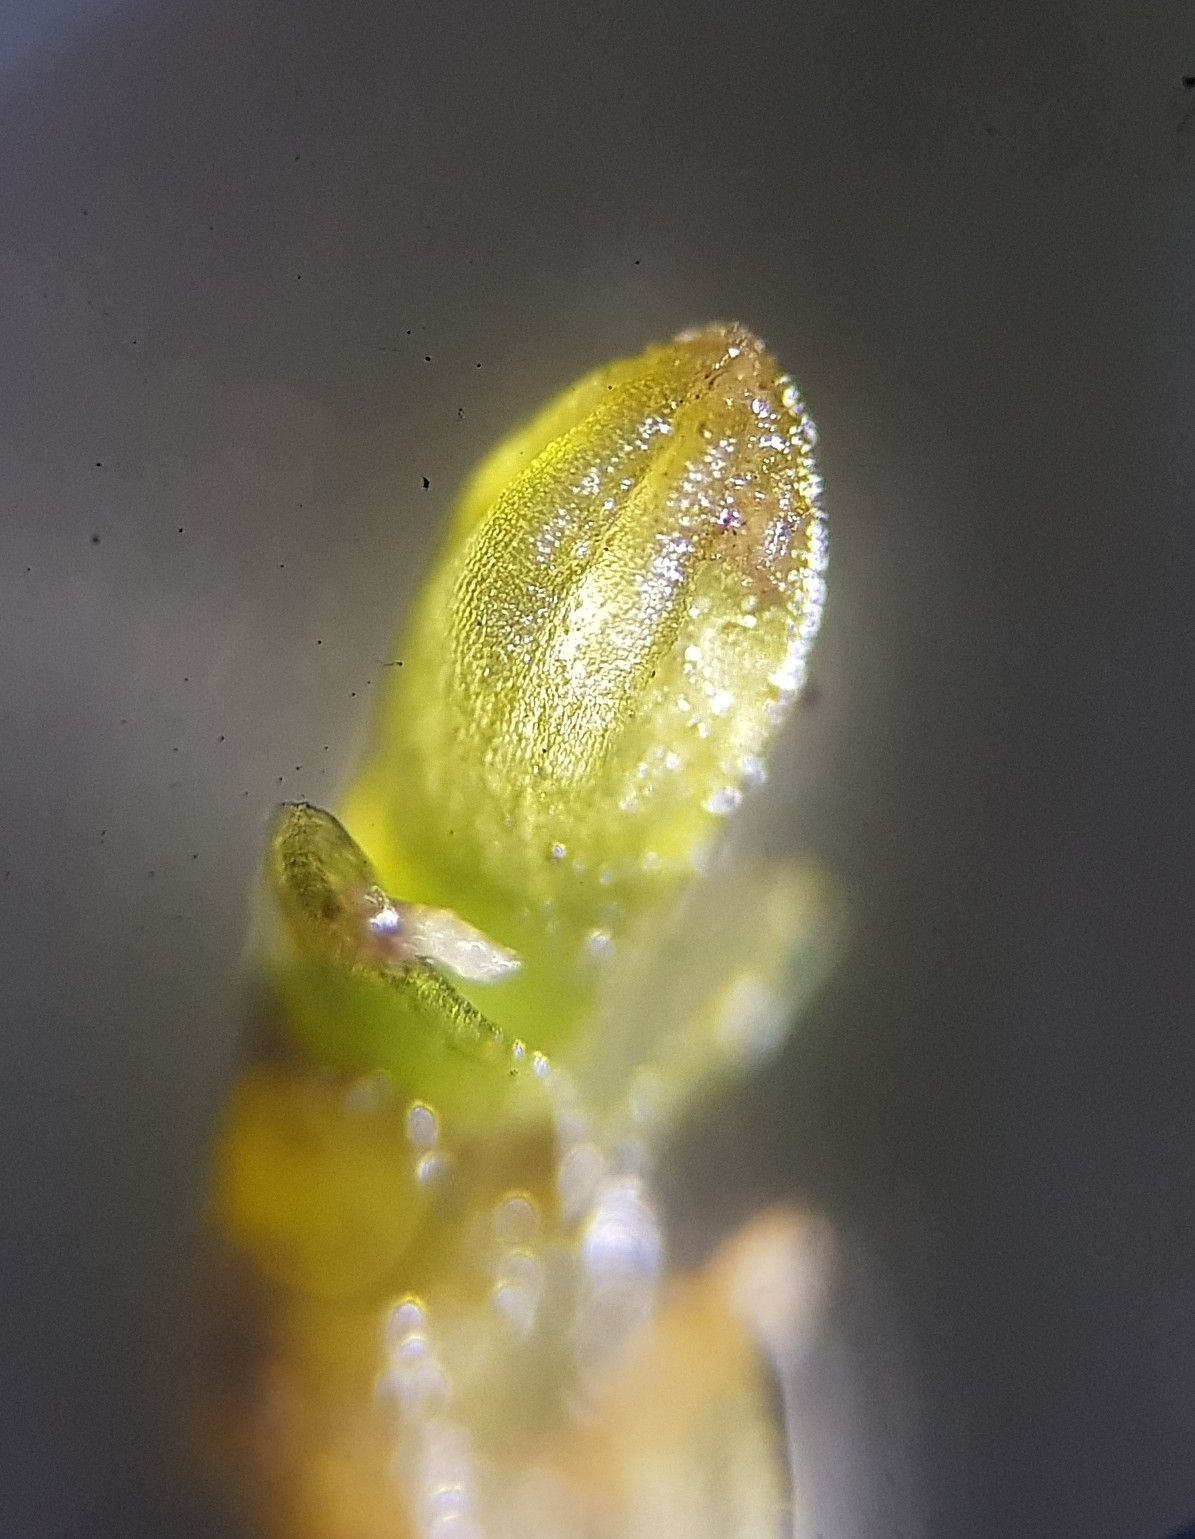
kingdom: Plantae
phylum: Marchantiophyta
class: Jungermanniopsida
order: Jungermanniales
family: Jungermanniaceae
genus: Jungermannia
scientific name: Jungermannia atrovirens
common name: Dark-green flapwort
